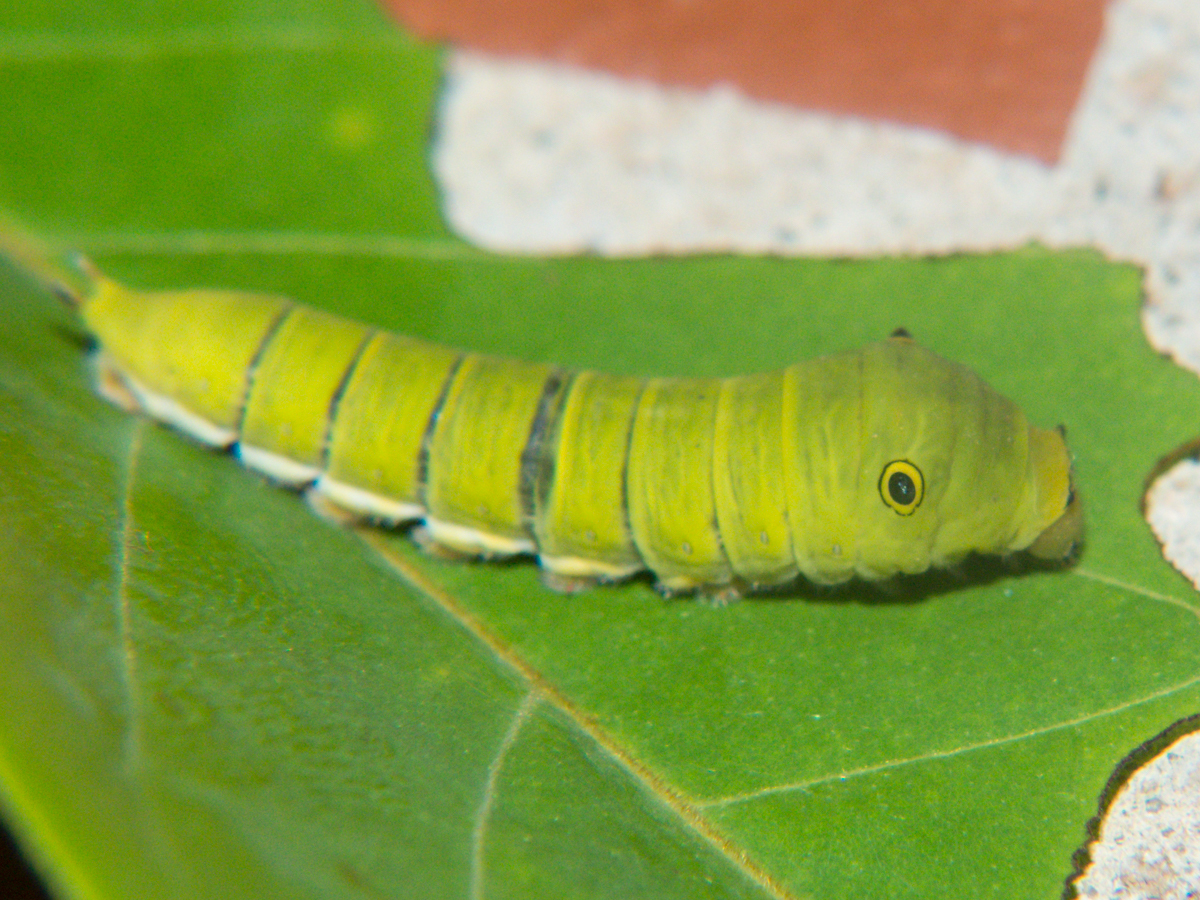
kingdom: Animalia
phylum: Arthropoda
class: Insecta
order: Lepidoptera
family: Papilionidae
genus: Graphium
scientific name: Graphium doson
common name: Common jay
